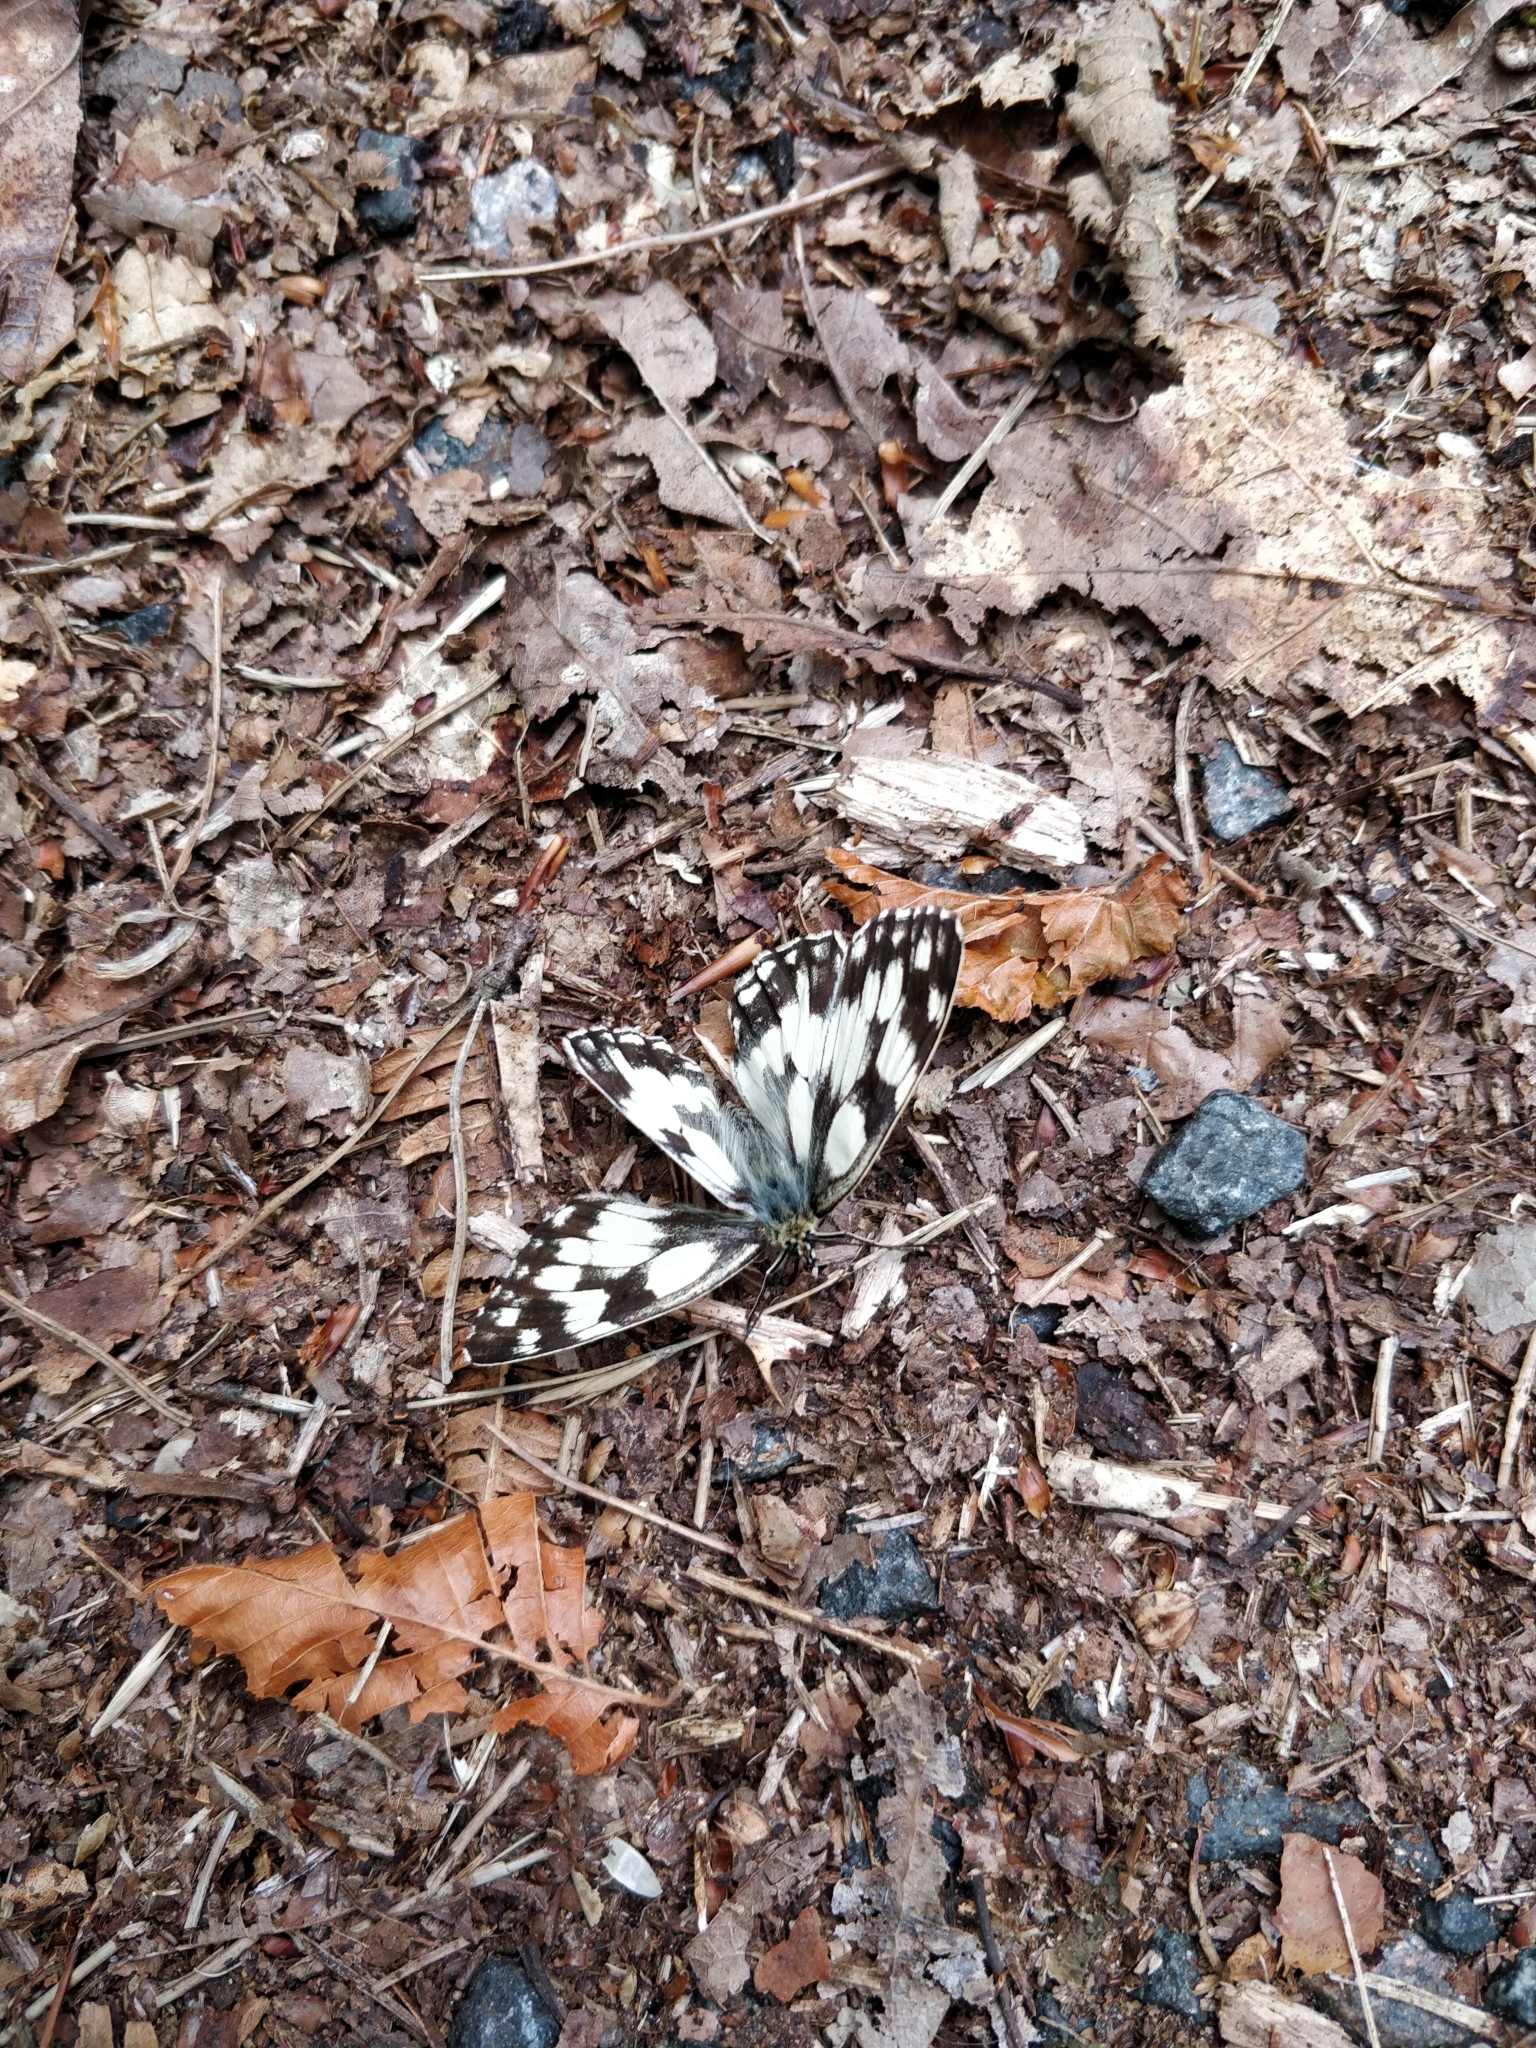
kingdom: Animalia
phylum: Arthropoda
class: Insecta
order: Lepidoptera
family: Nymphalidae
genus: Melanargia
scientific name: Melanargia galathea
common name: Marbled white
